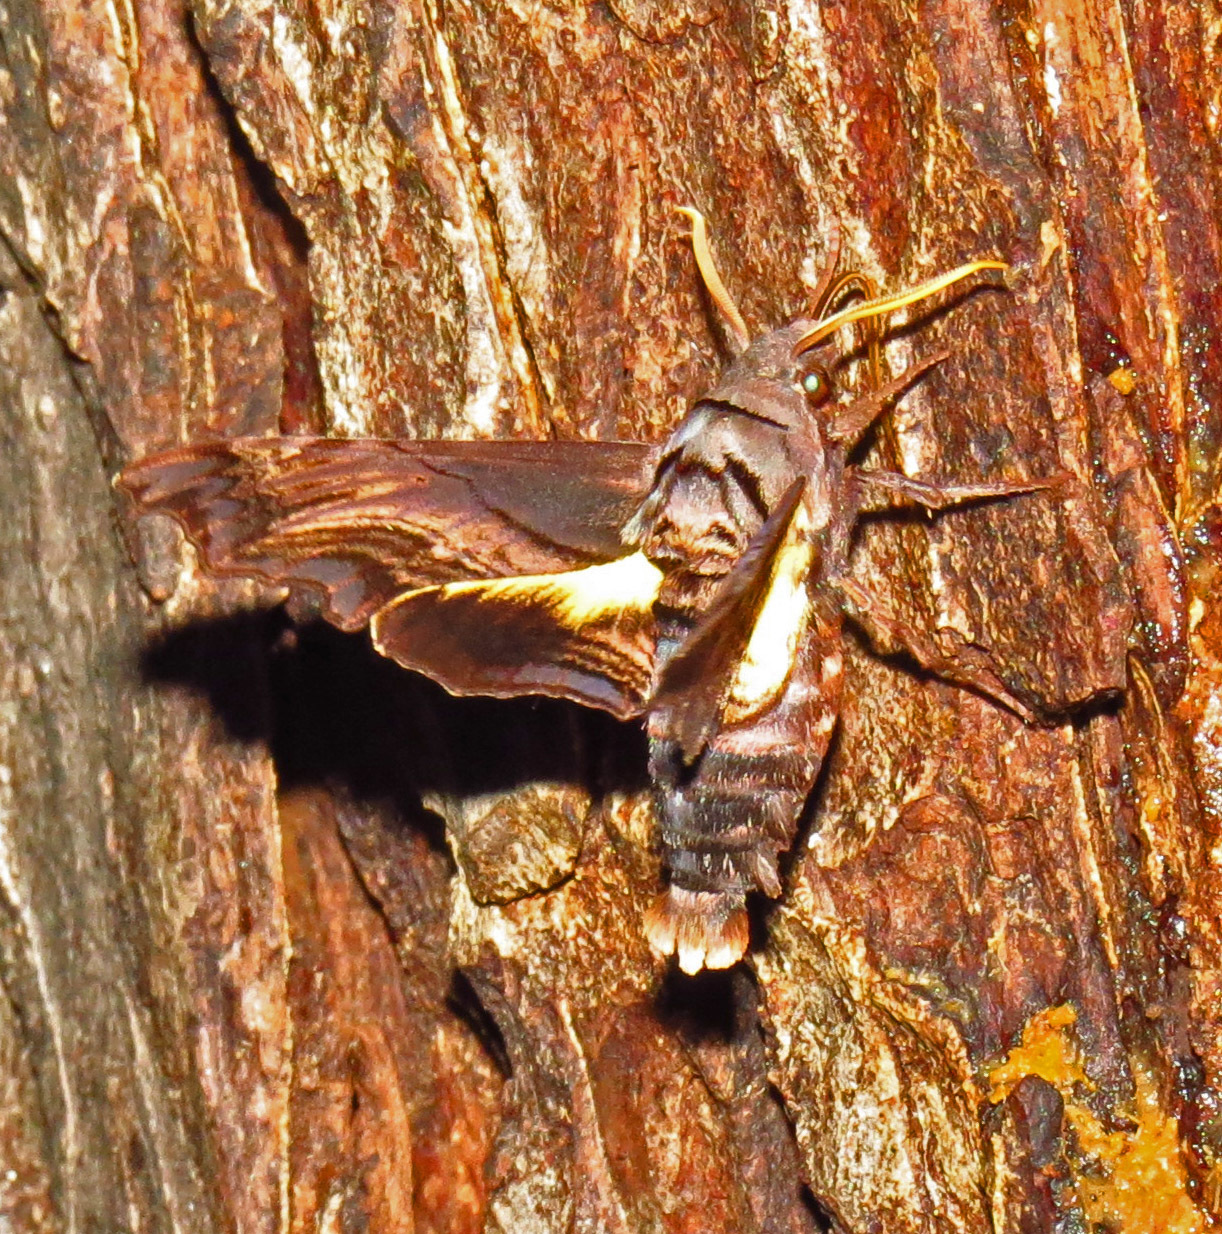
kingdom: Animalia
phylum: Arthropoda
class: Insecta
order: Lepidoptera
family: Sphingidae
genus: Sphecodina
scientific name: Sphecodina abbottii
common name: Abbott's sphinx
